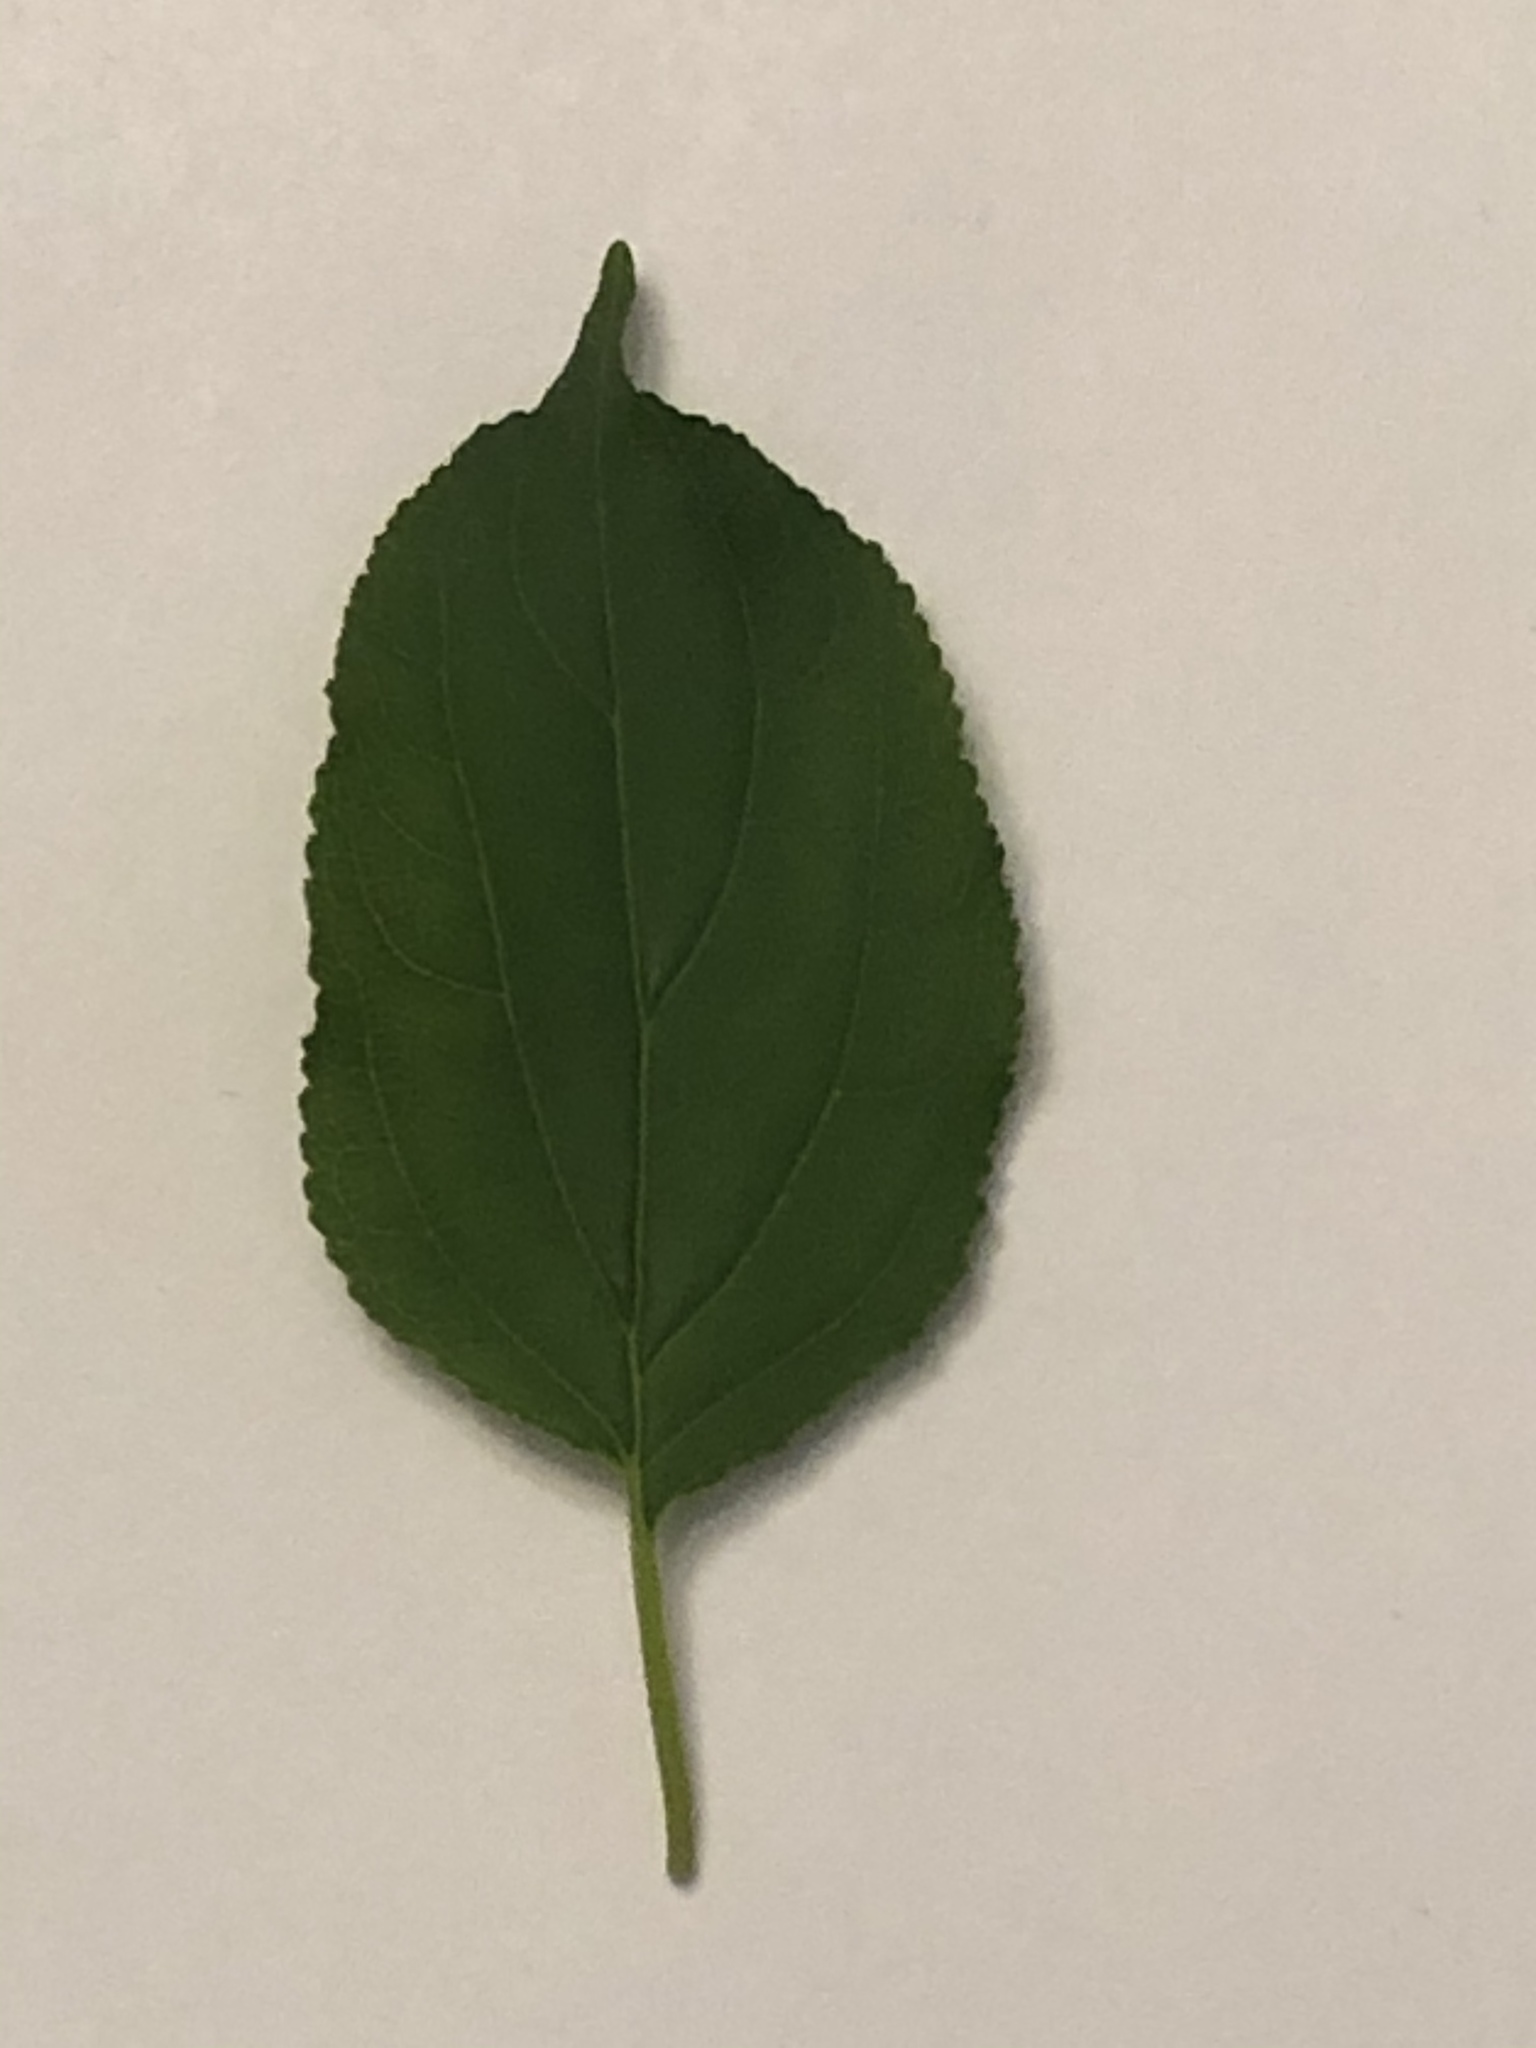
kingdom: Plantae
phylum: Tracheophyta
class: Magnoliopsida
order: Rosales
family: Rhamnaceae
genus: Rhamnus
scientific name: Rhamnus cathartica
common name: Common buckthorn
